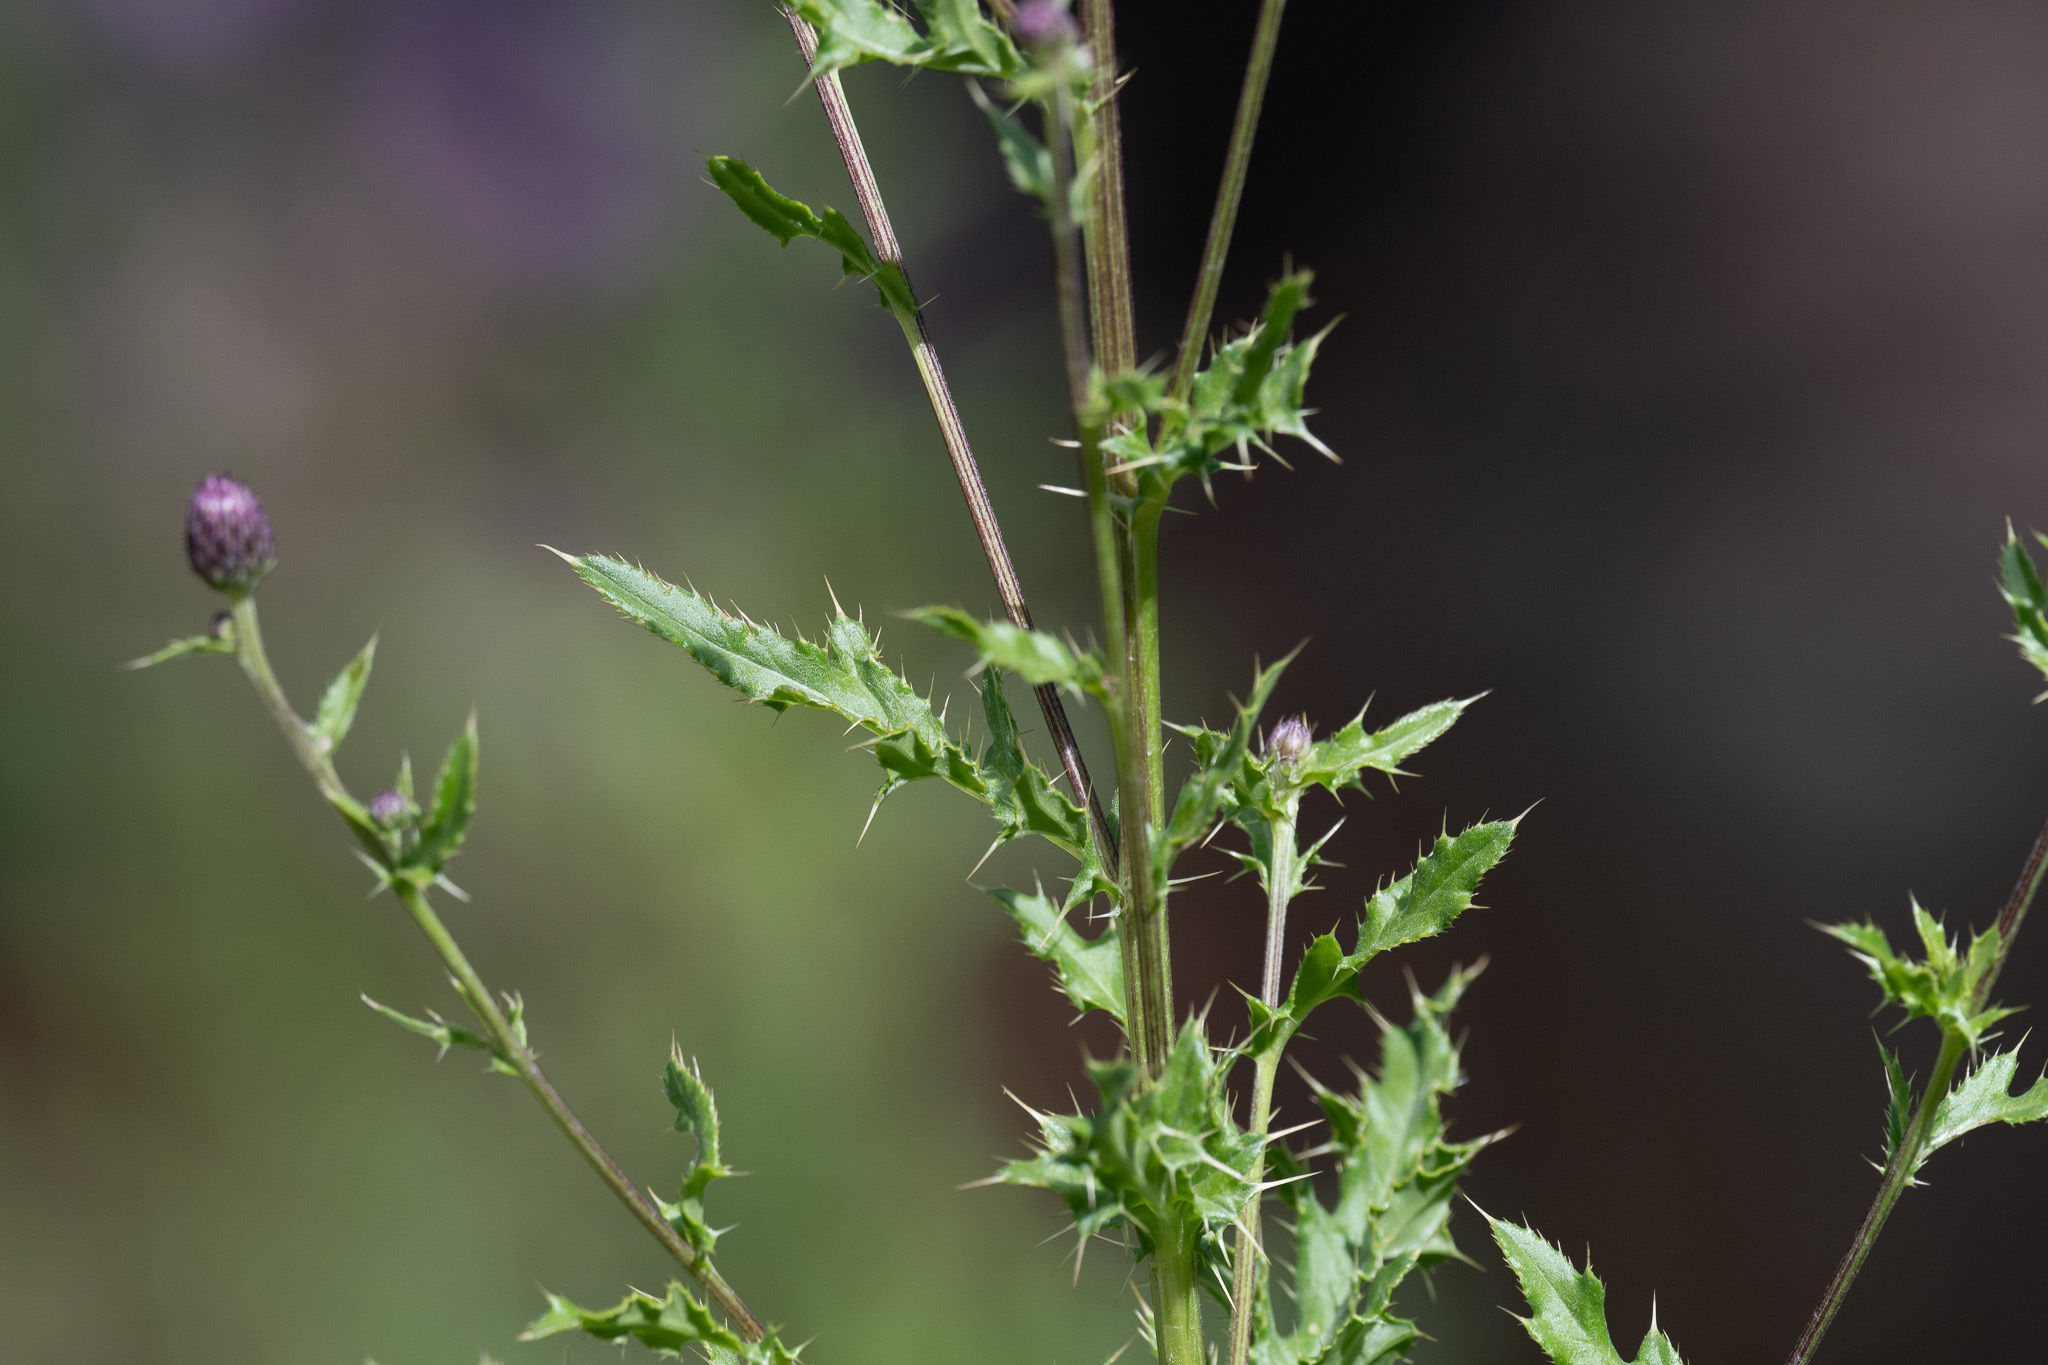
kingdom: Plantae
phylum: Tracheophyta
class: Magnoliopsida
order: Asterales
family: Asteraceae
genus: Cirsium
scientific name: Cirsium arvense
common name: Creeping thistle
